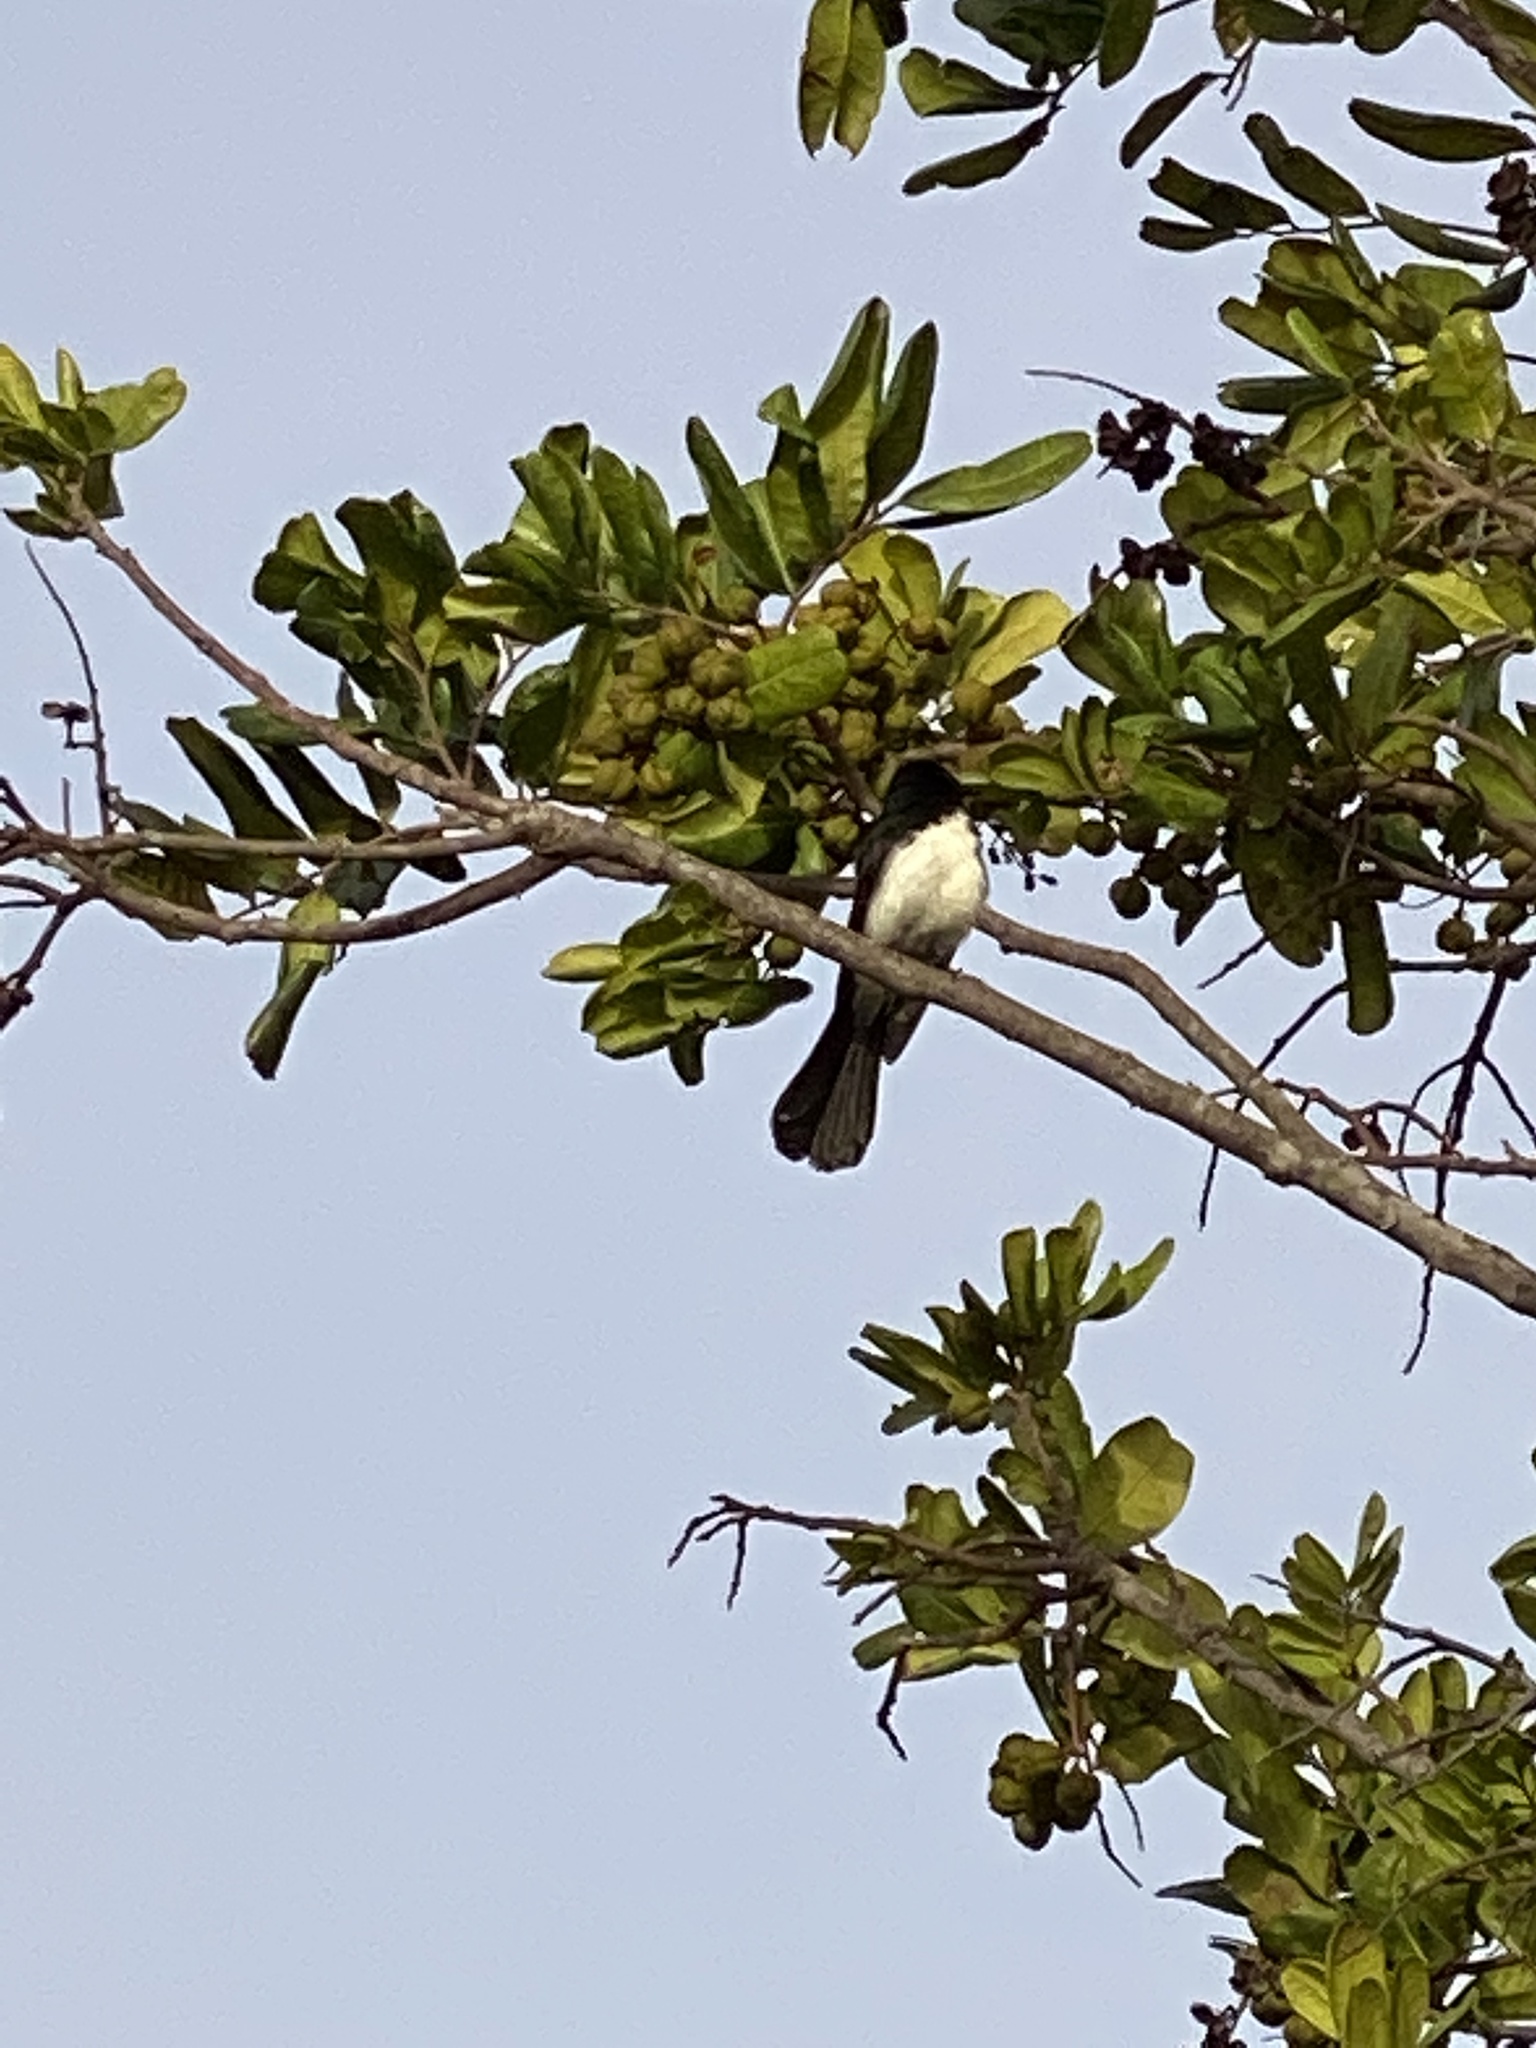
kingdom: Animalia
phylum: Chordata
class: Aves
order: Passeriformes
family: Rhipiduridae
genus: Rhipidura
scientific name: Rhipidura leucophrys
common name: Willie wagtail
